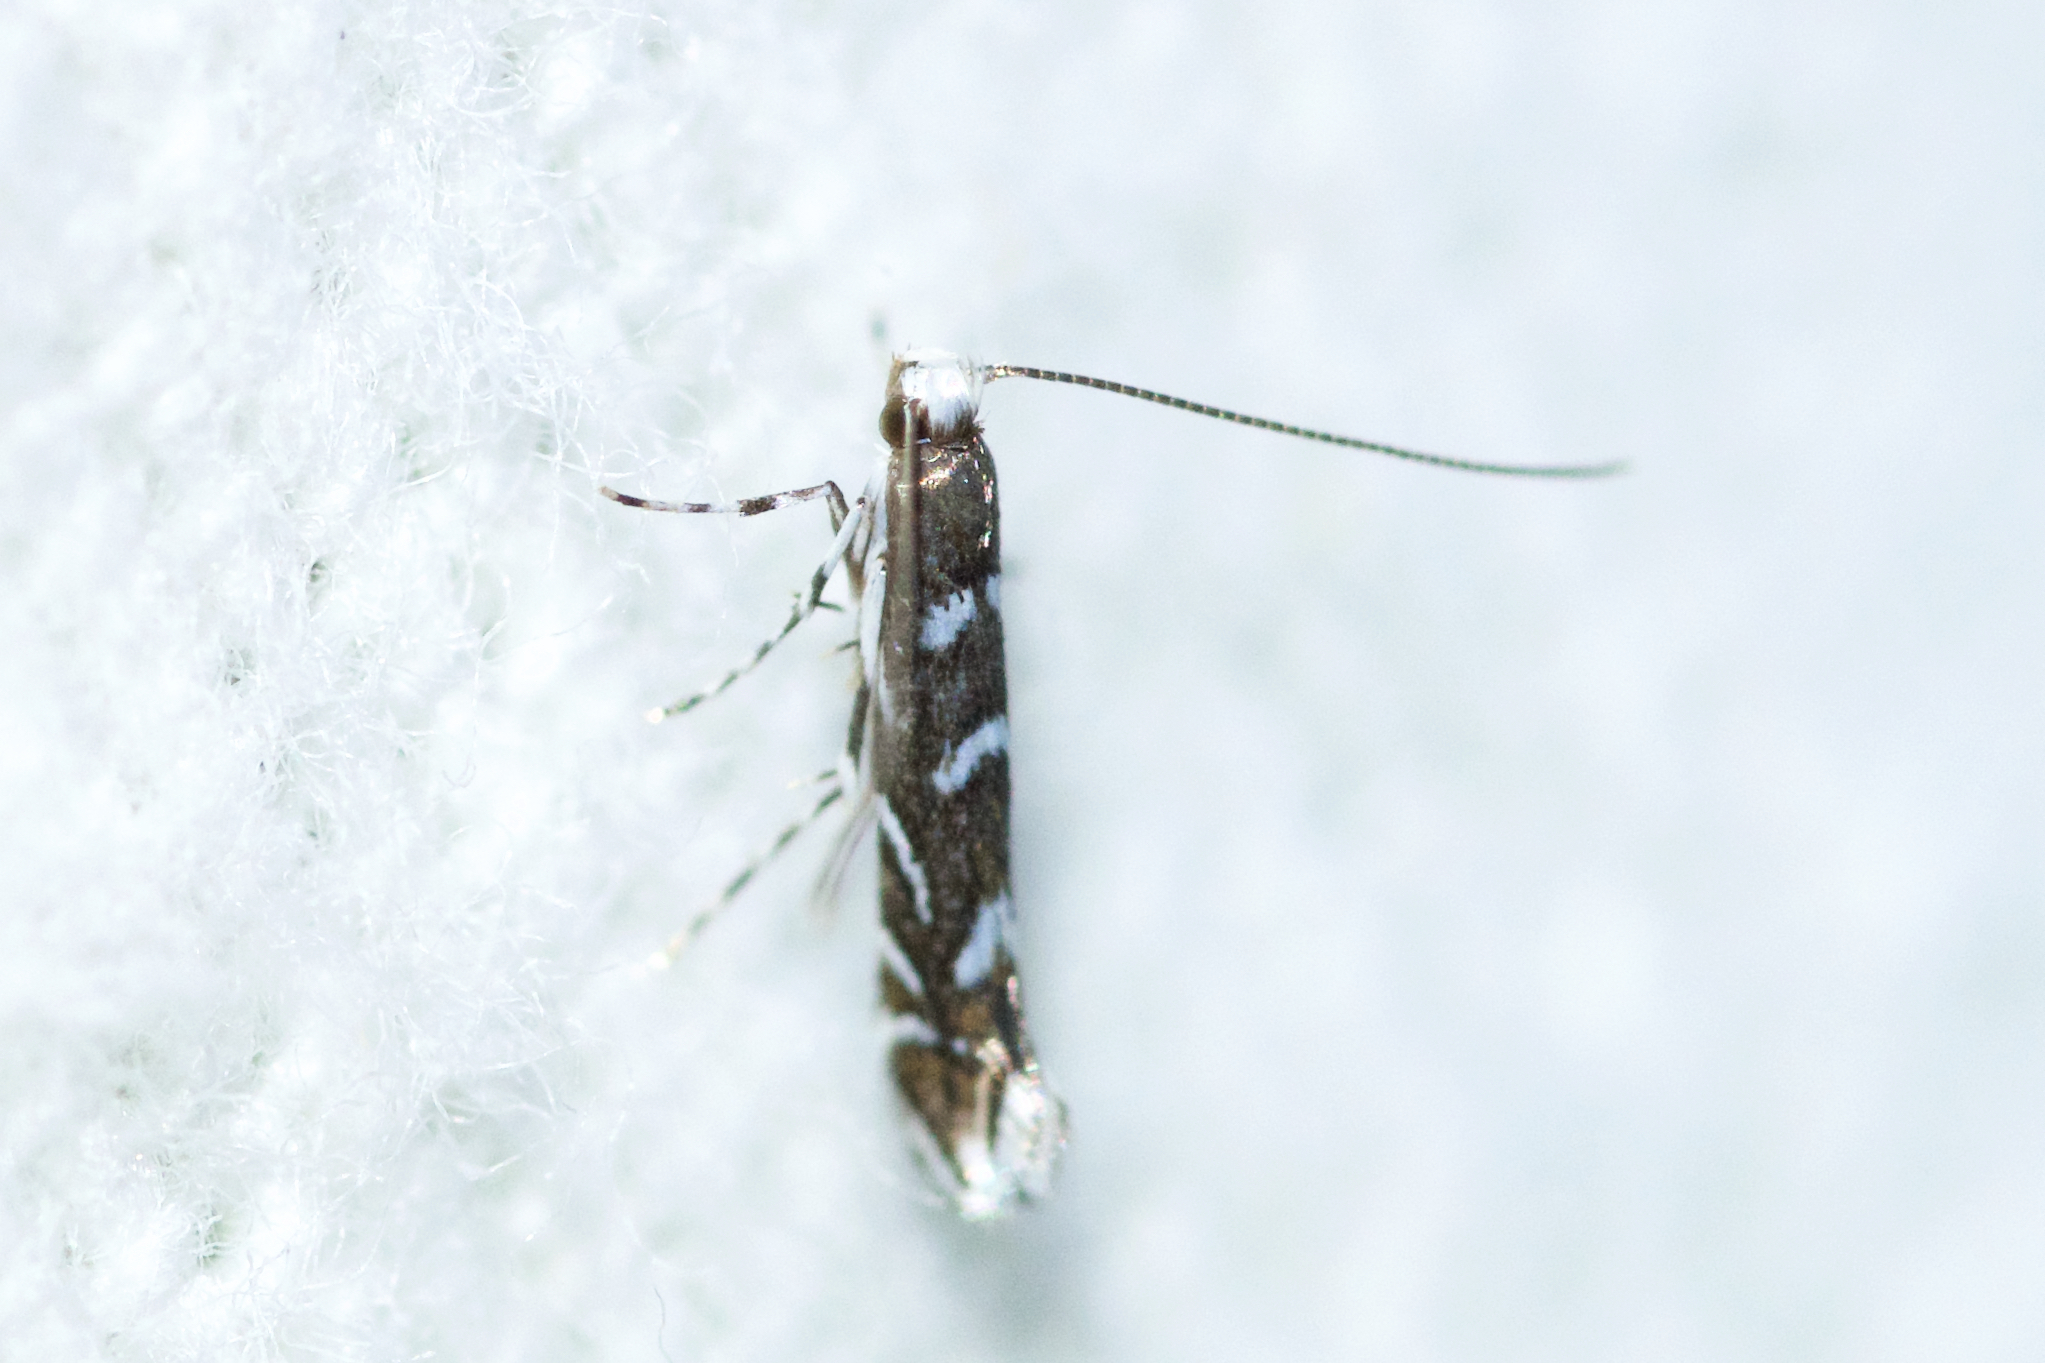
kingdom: Animalia
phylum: Arthropoda
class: Insecta
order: Lepidoptera
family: Gracillariidae
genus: Parectopa
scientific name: Parectopa robiniella
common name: Locust digitate leafminer
